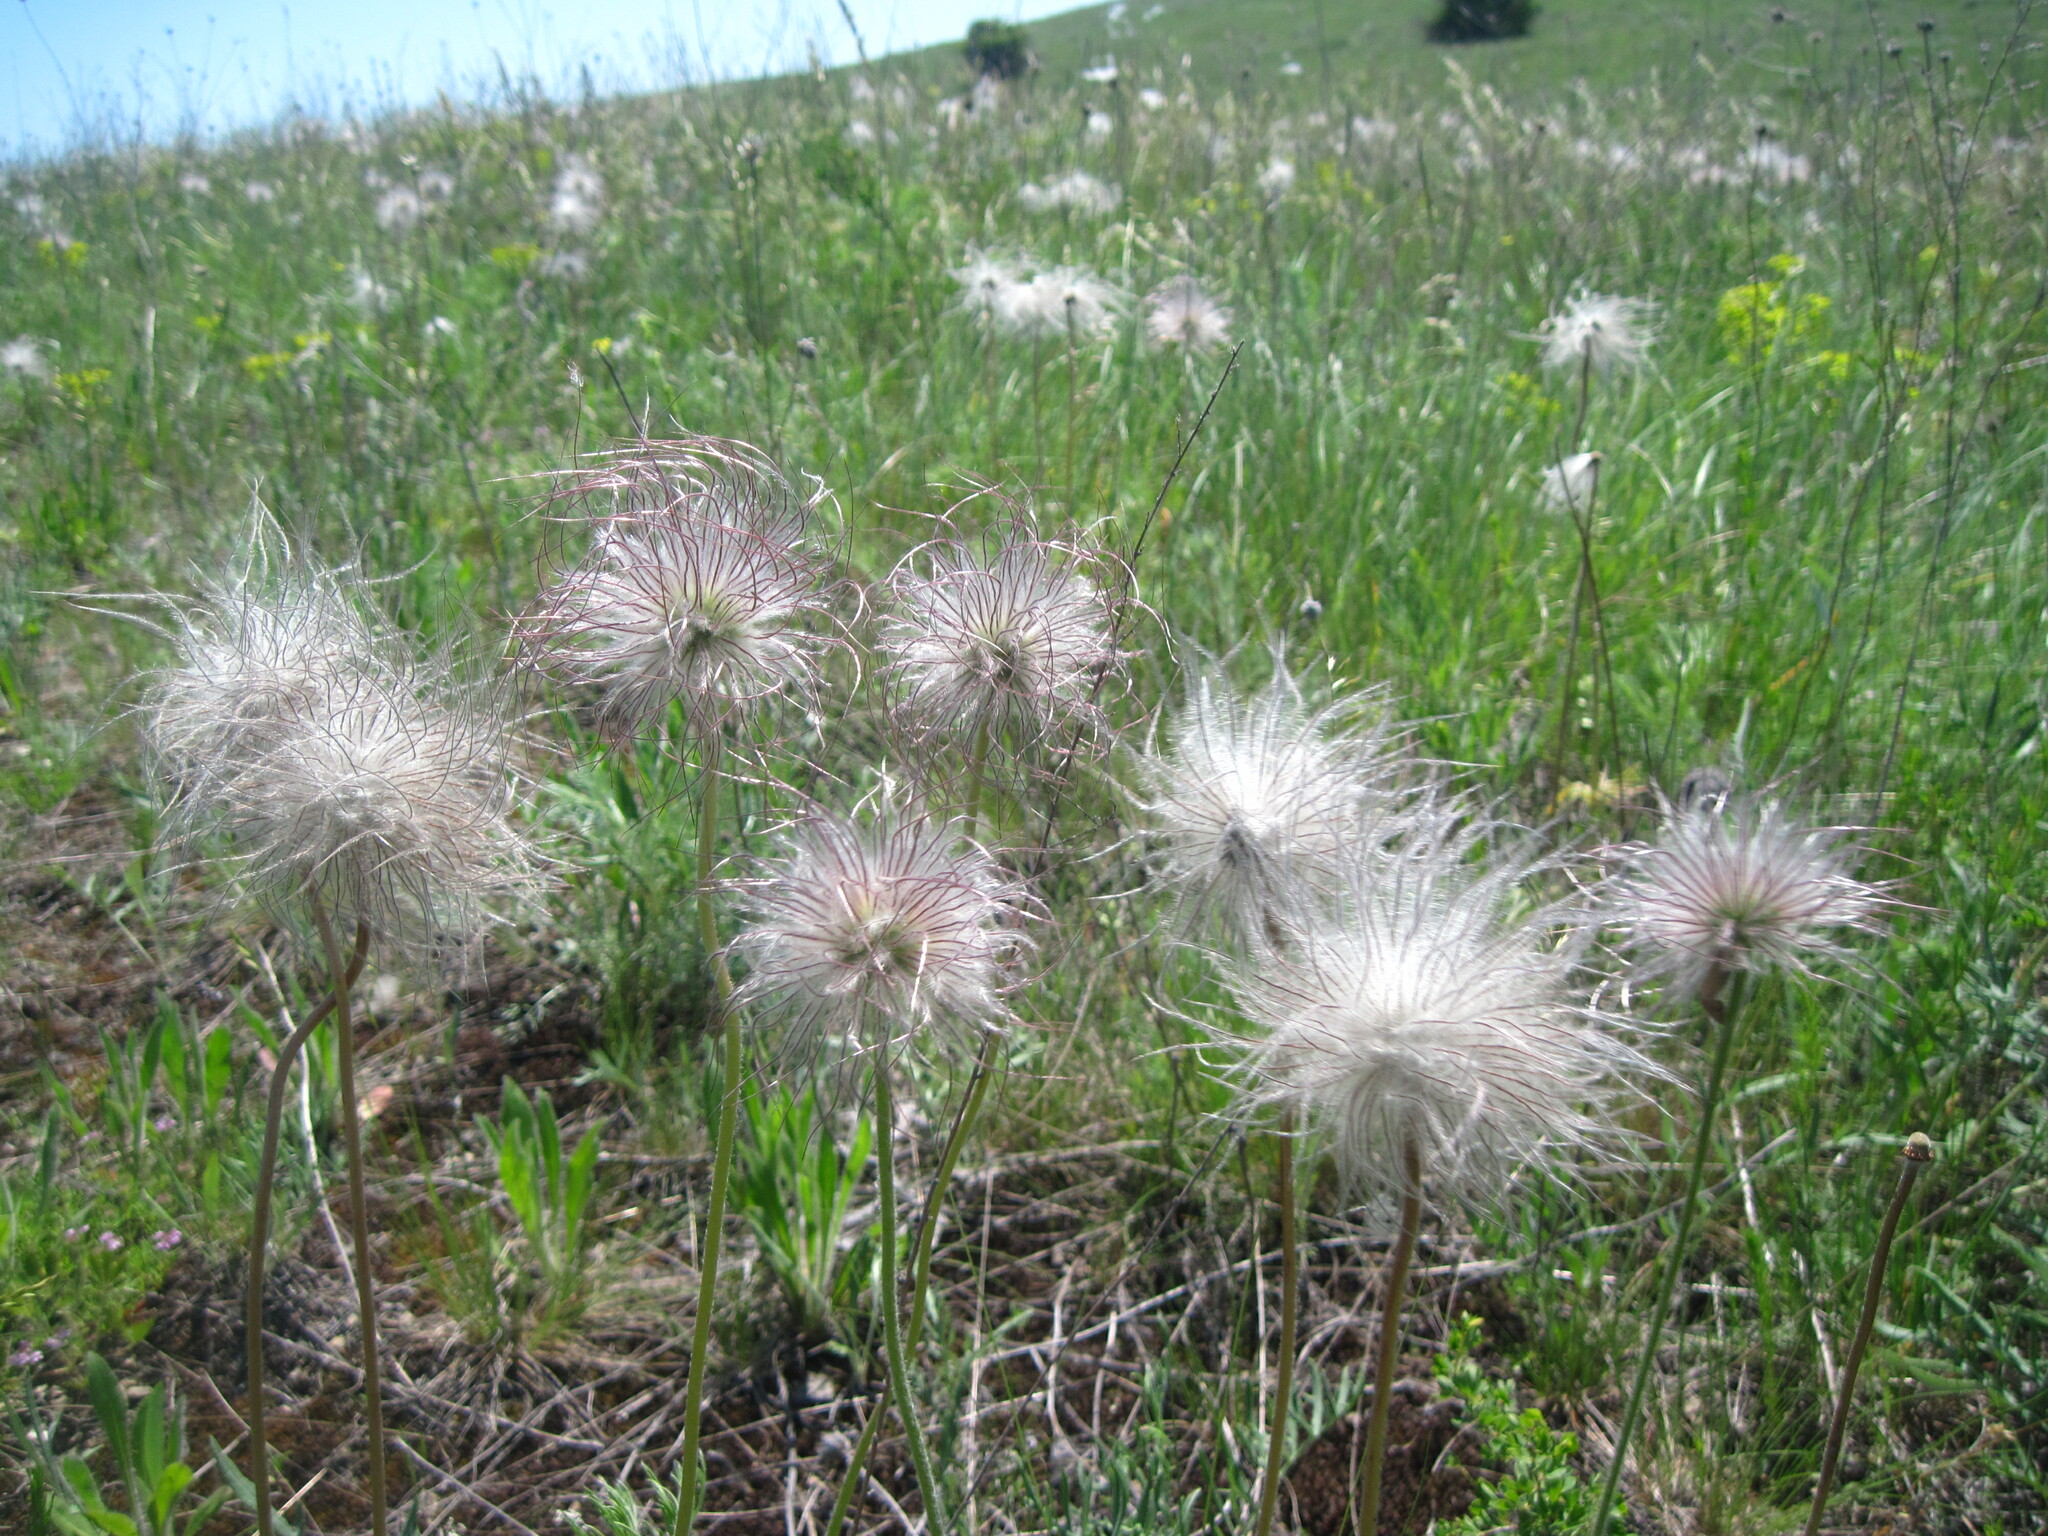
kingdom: Plantae
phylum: Tracheophyta
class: Magnoliopsida
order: Ranunculales
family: Ranunculaceae
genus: Pulsatilla
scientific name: Pulsatilla pratensis
